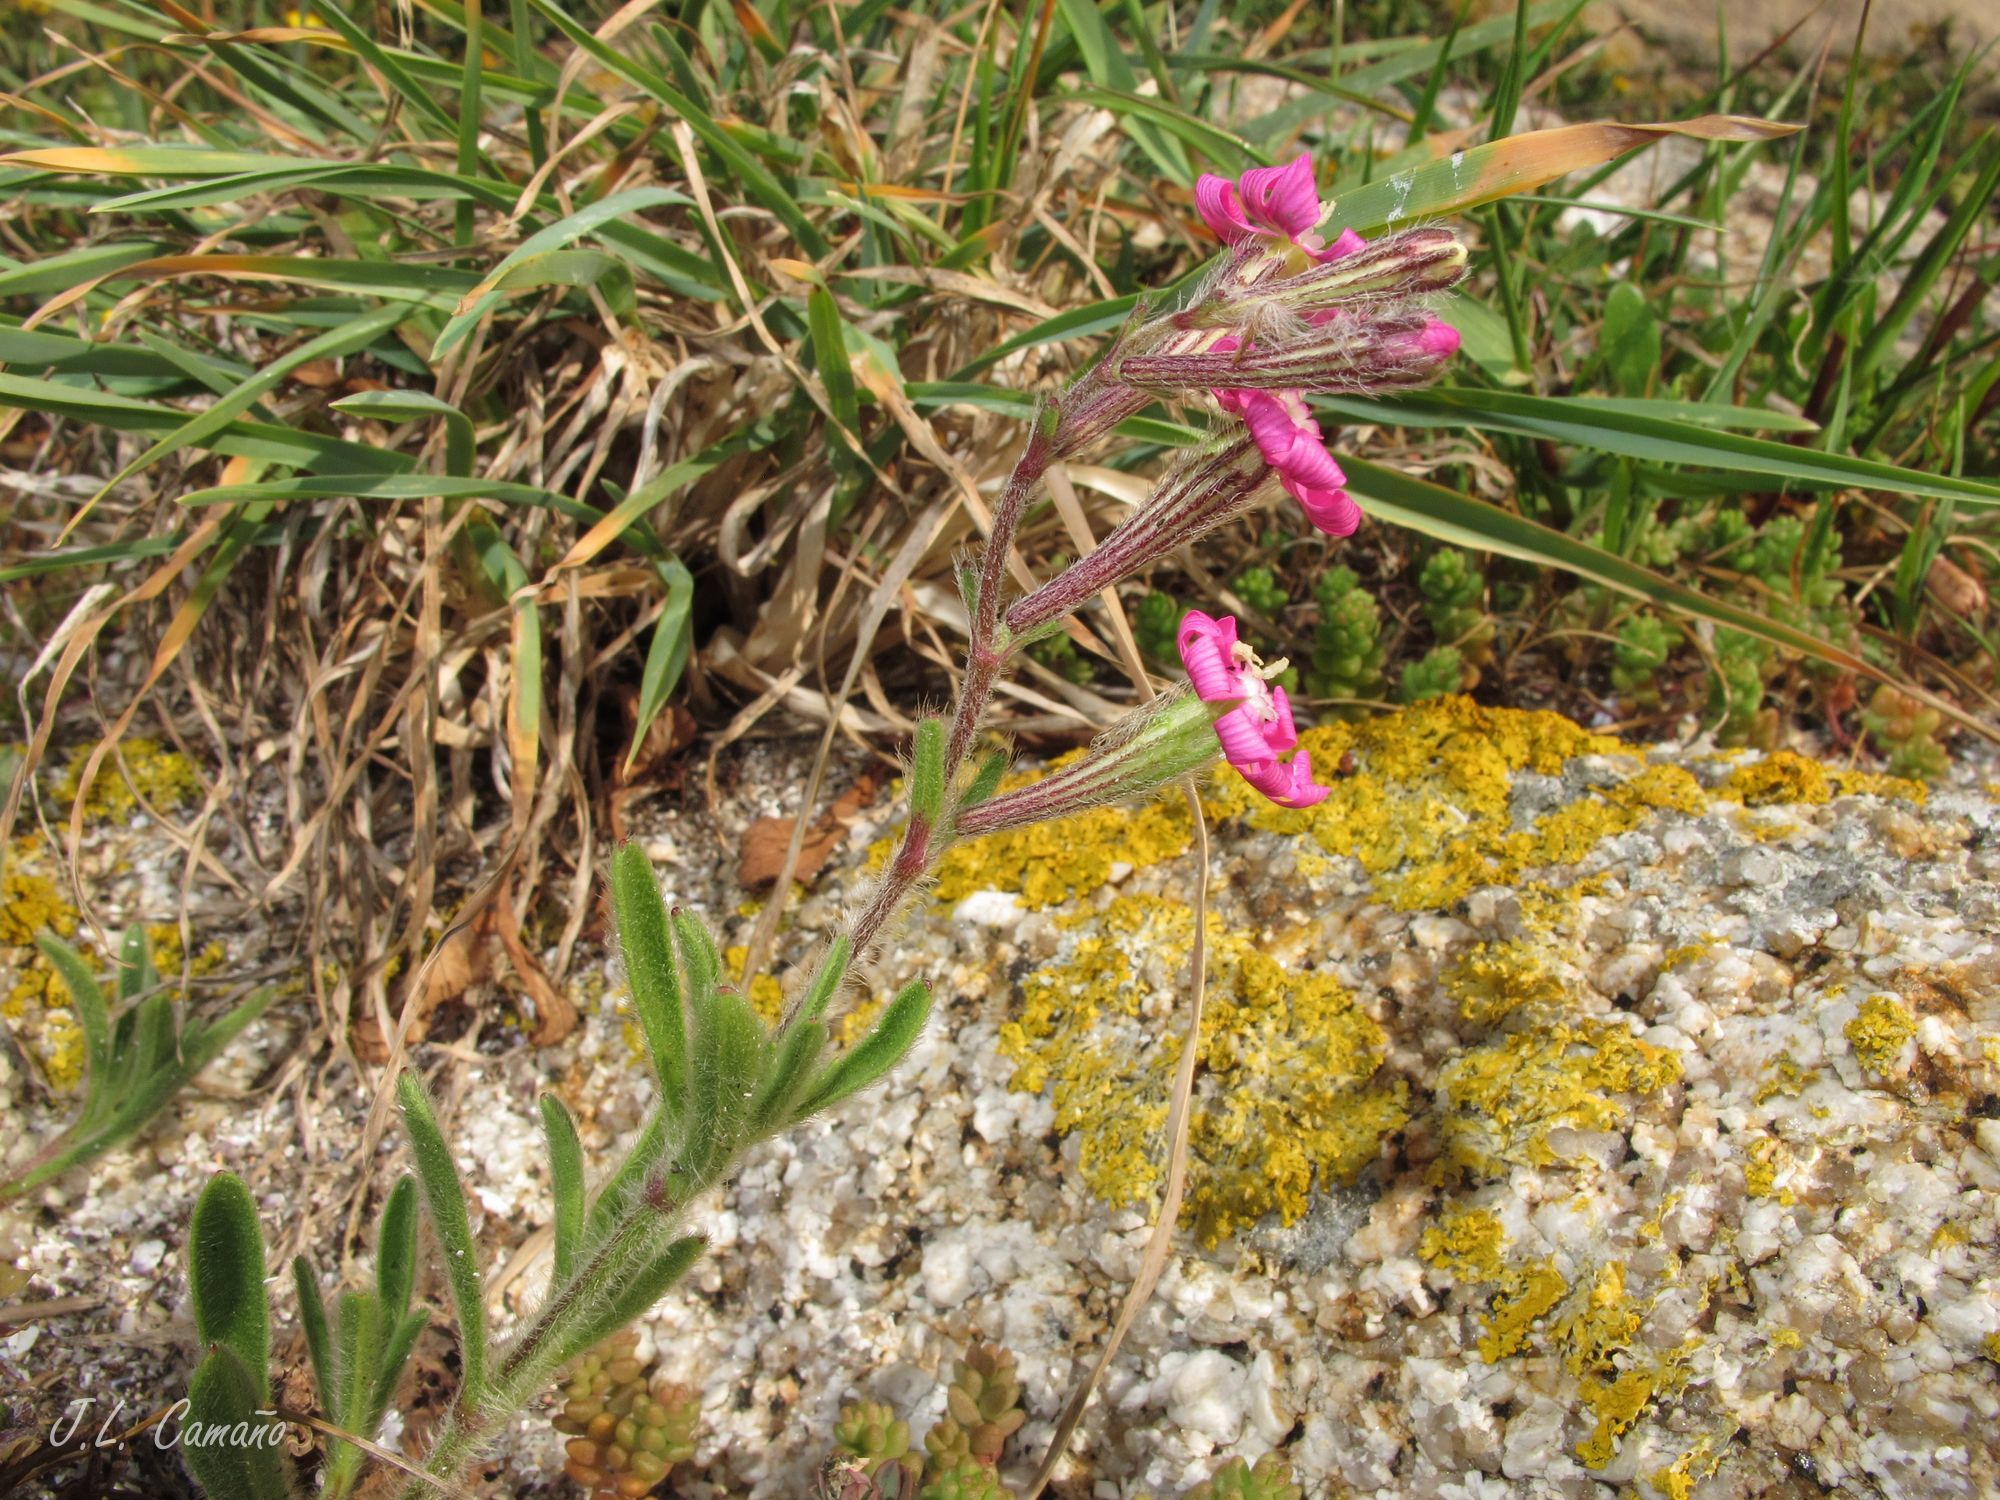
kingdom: Plantae
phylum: Tracheophyta
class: Magnoliopsida
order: Caryophyllales
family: Caryophyllaceae
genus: Silene
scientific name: Silene scabriflora
